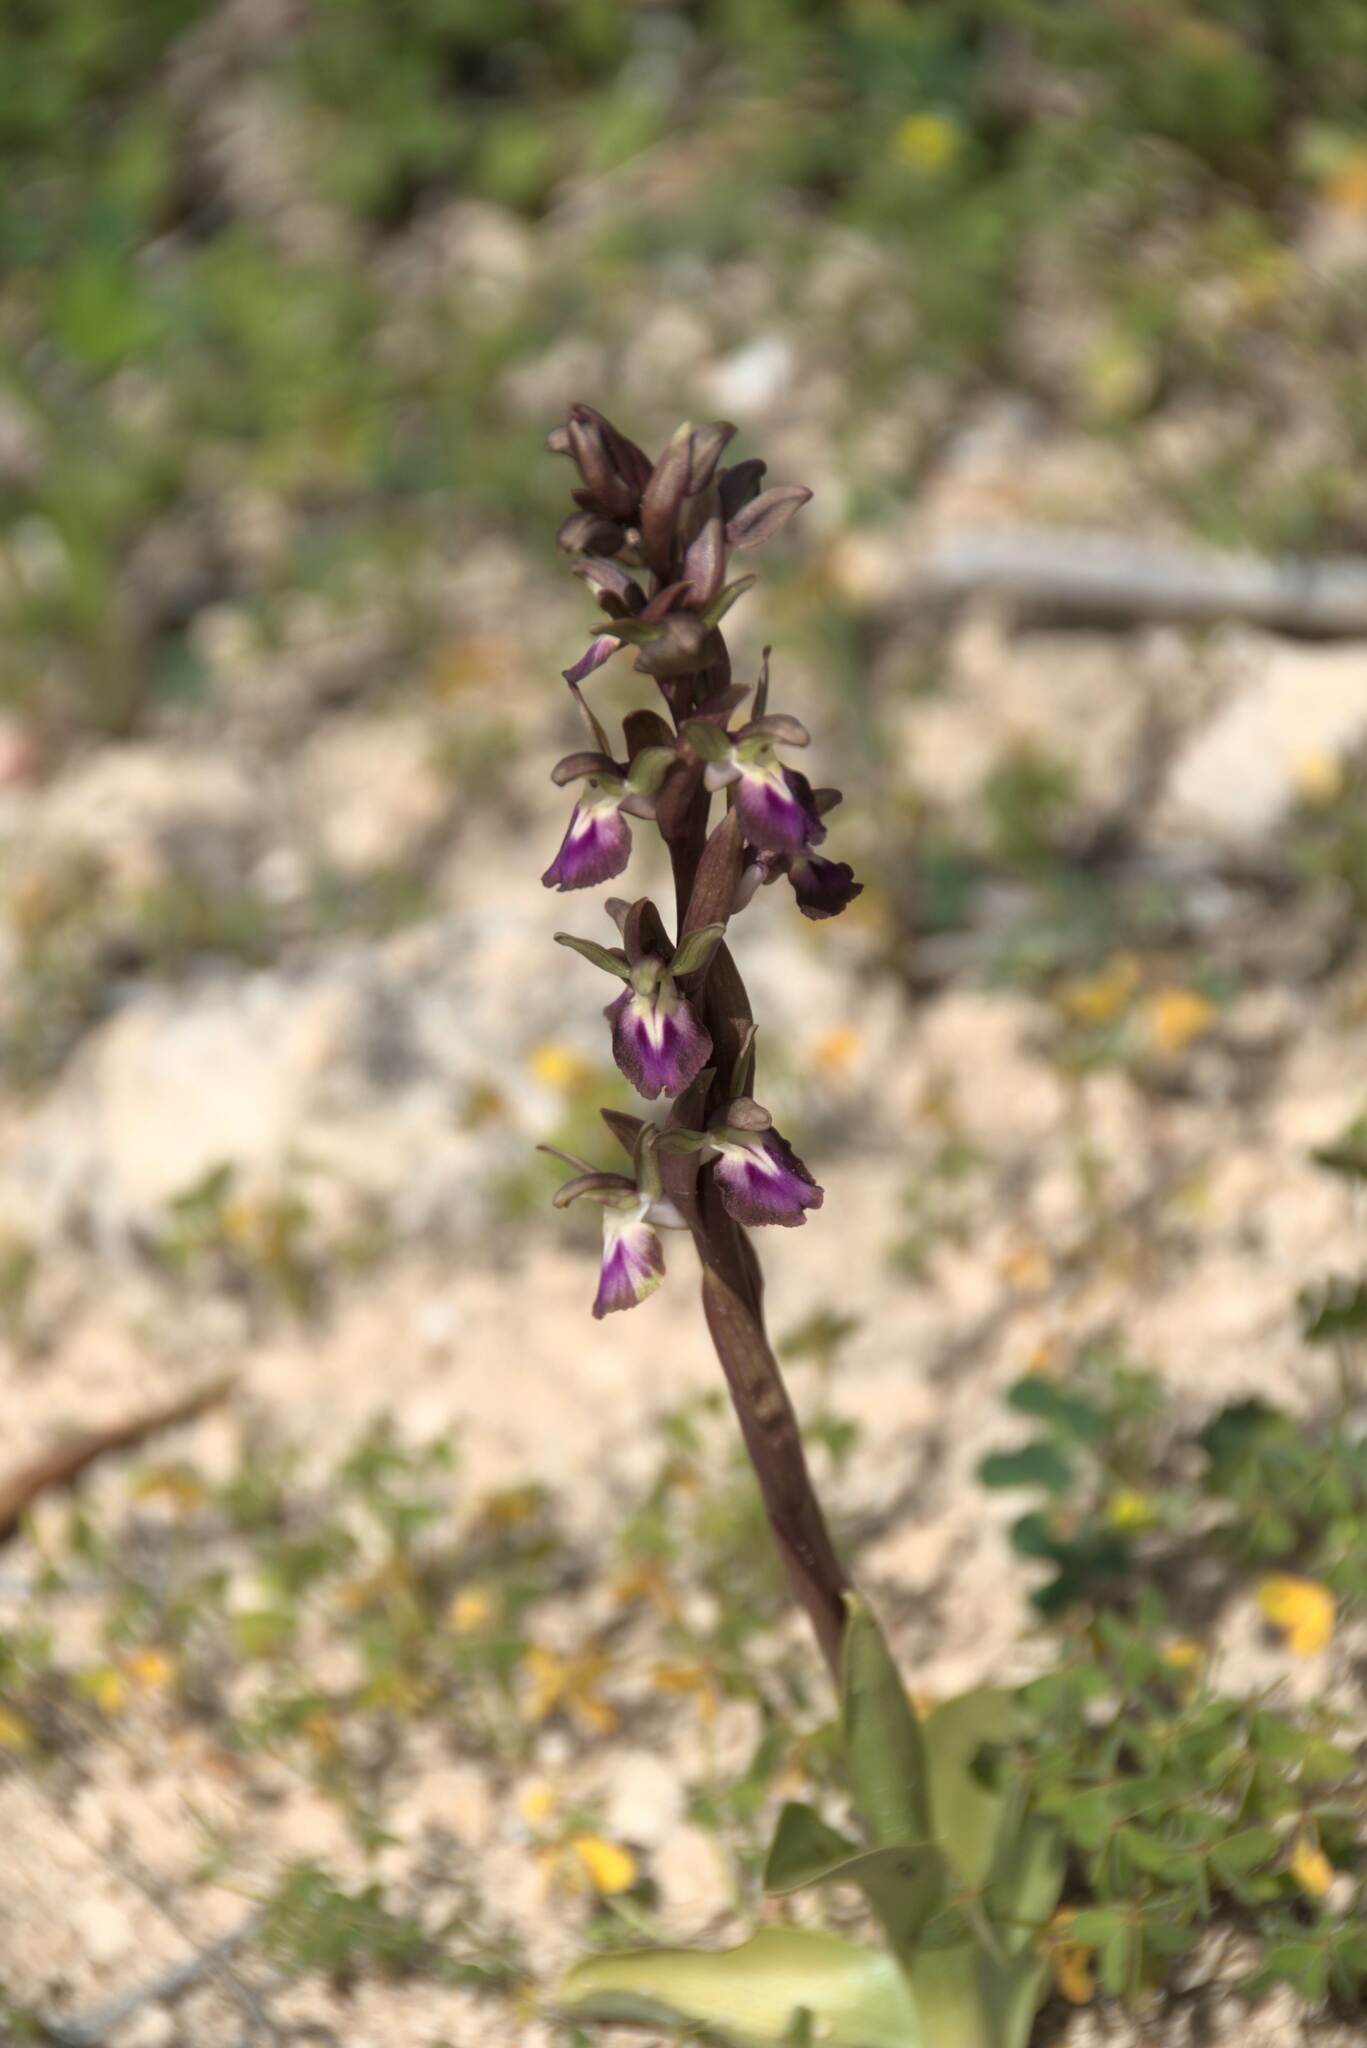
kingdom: Plantae
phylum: Tracheophyta
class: Liliopsida
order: Asparagales
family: Orchidaceae
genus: Anacamptis
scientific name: Anacamptis collina
